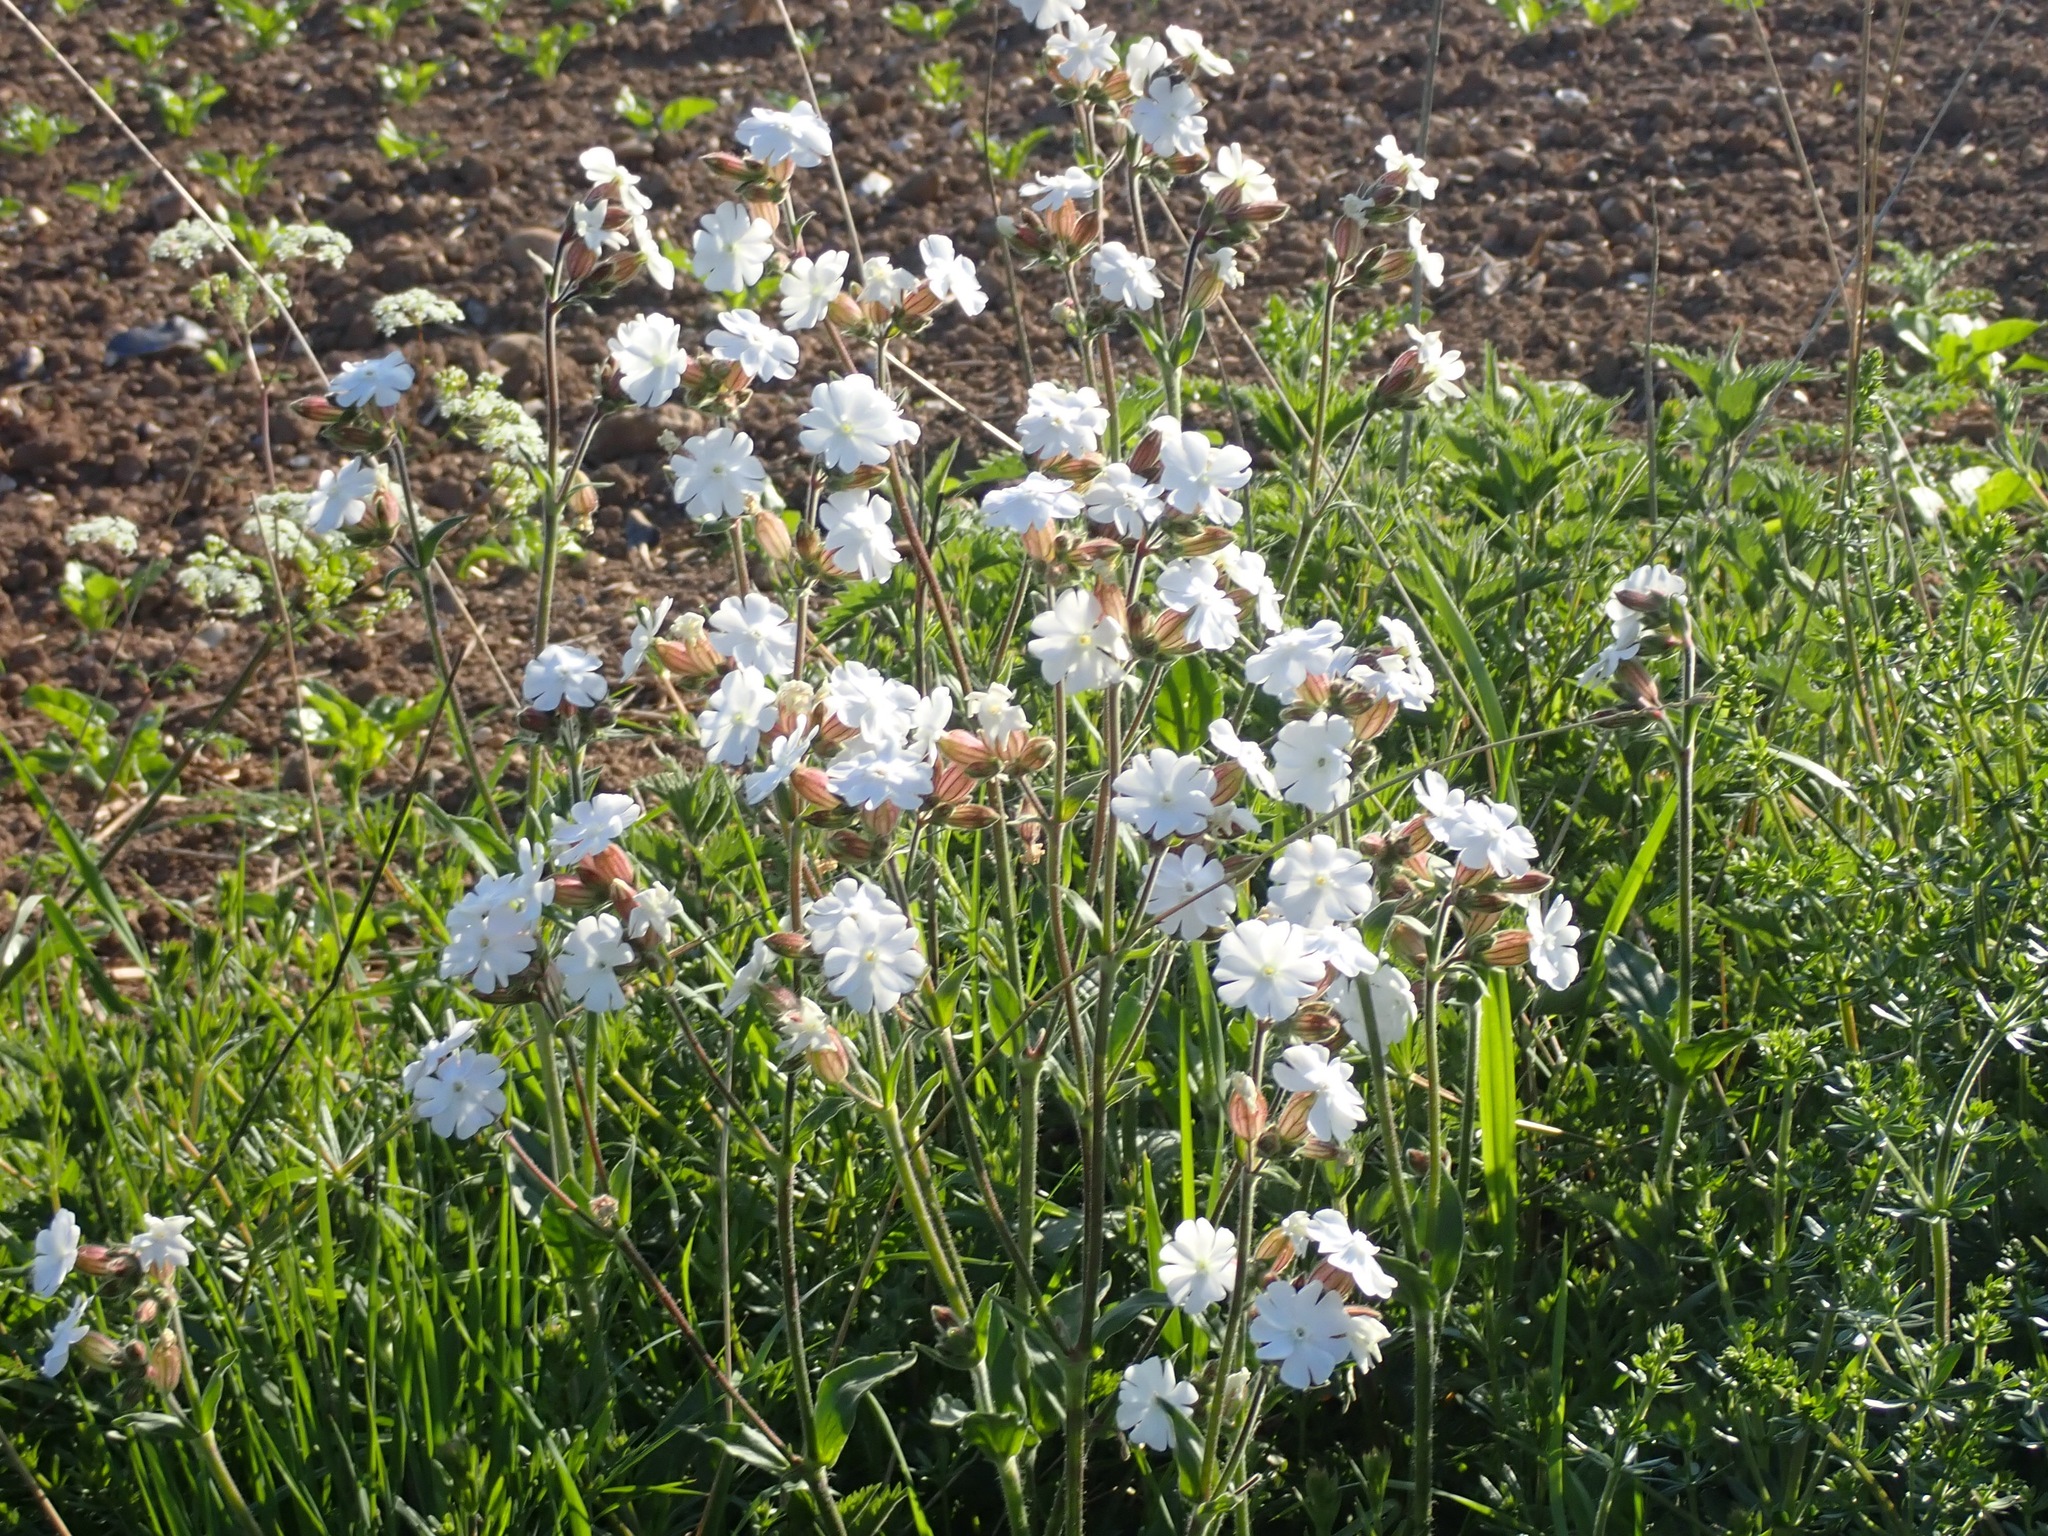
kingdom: Plantae
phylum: Tracheophyta
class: Magnoliopsida
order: Caryophyllales
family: Caryophyllaceae
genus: Silene
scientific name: Silene latifolia
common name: White campion
